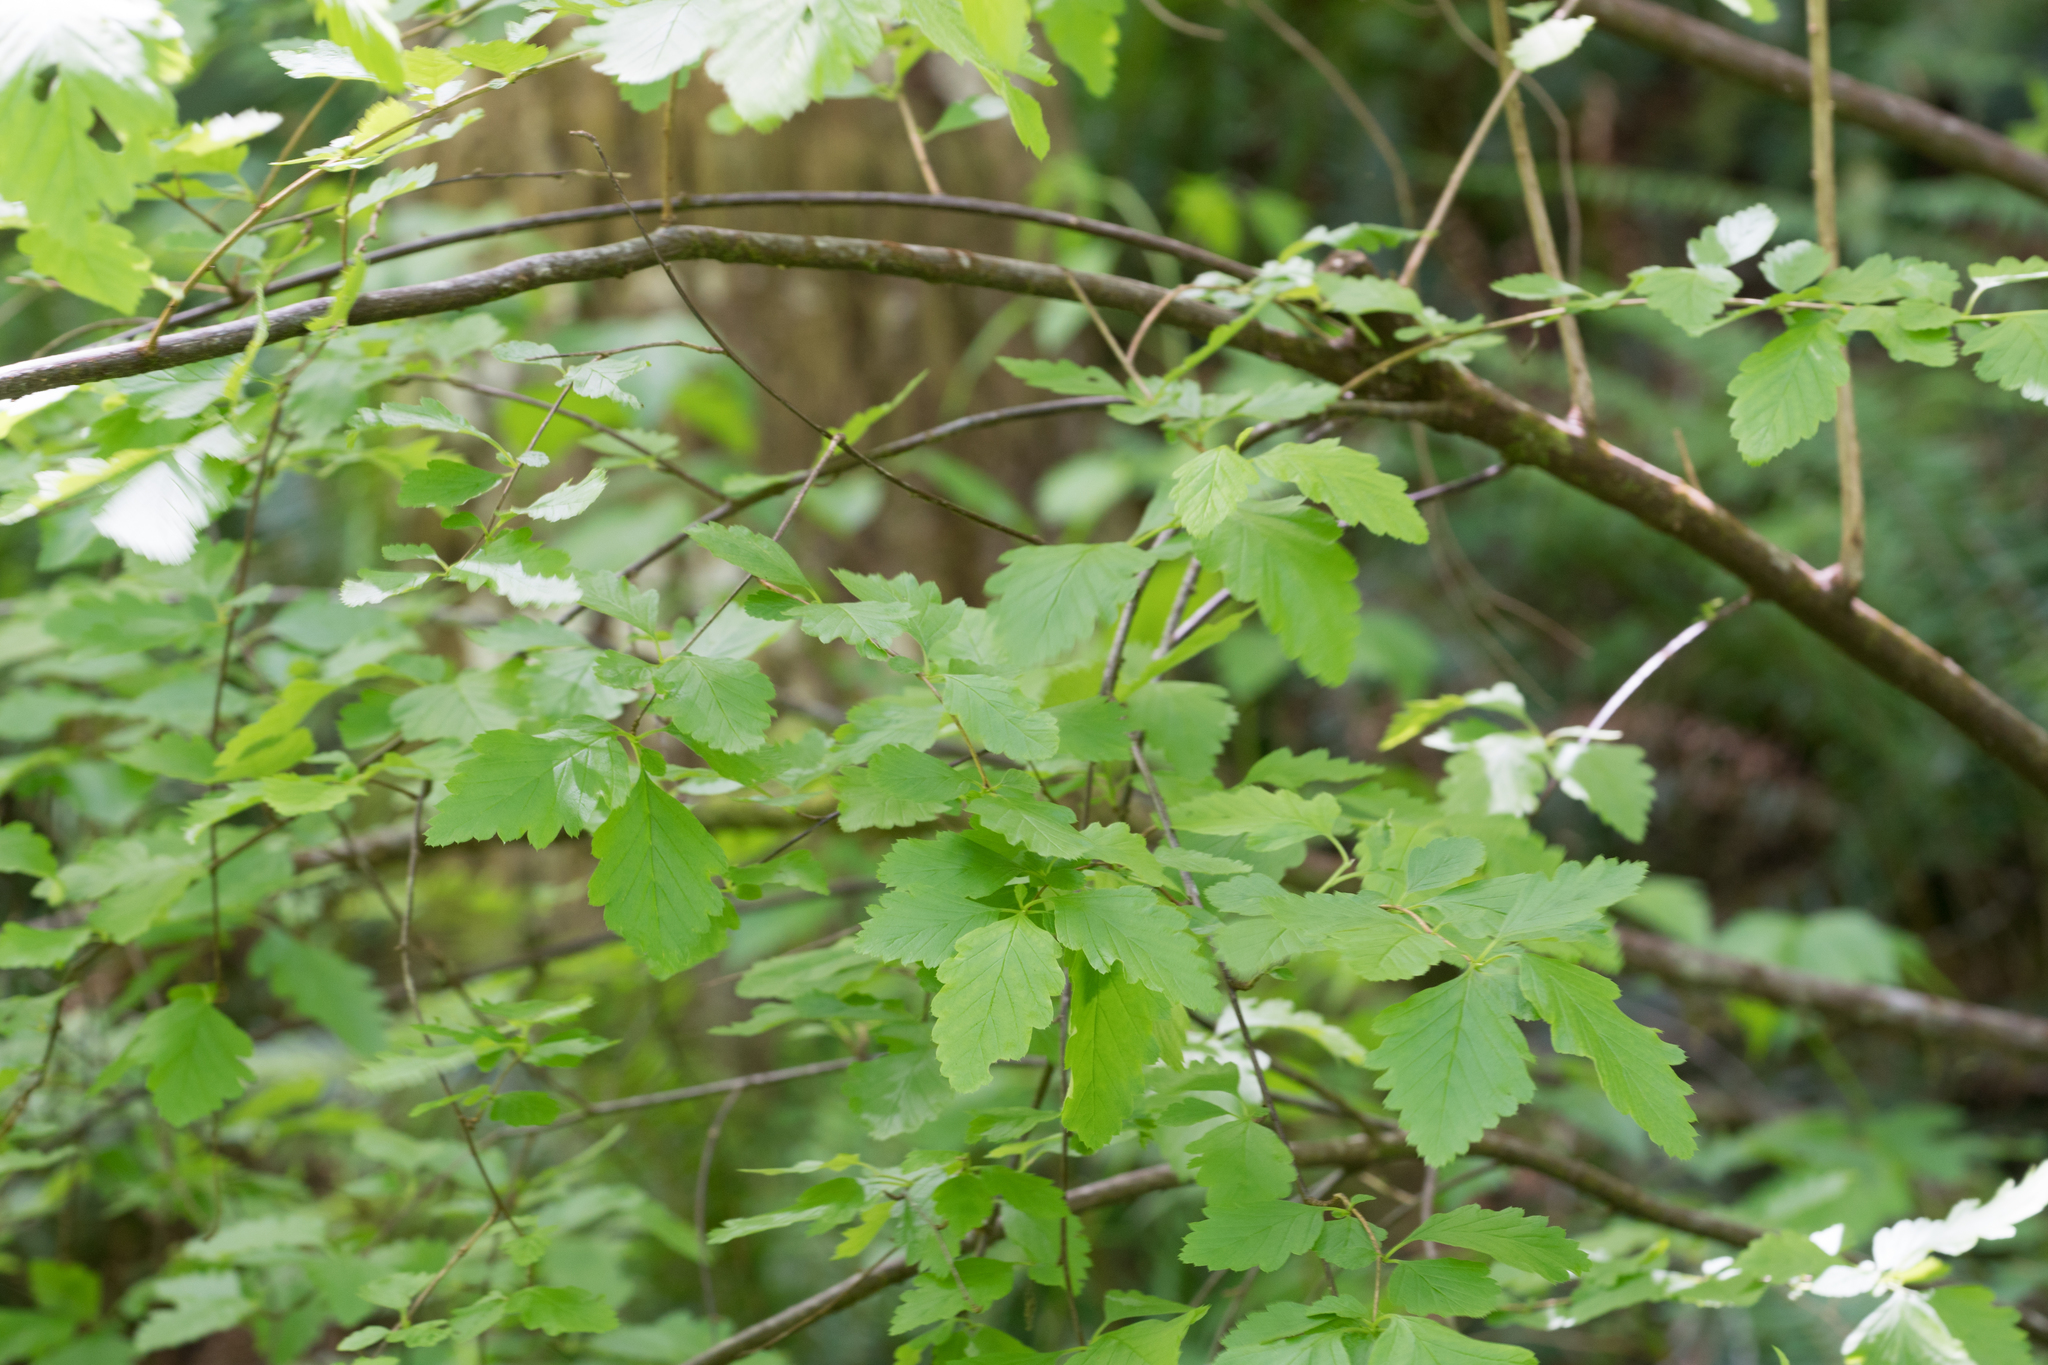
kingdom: Plantae
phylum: Tracheophyta
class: Magnoliopsida
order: Rosales
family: Rosaceae
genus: Holodiscus
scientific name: Holodiscus discolor
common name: Oceanspray
